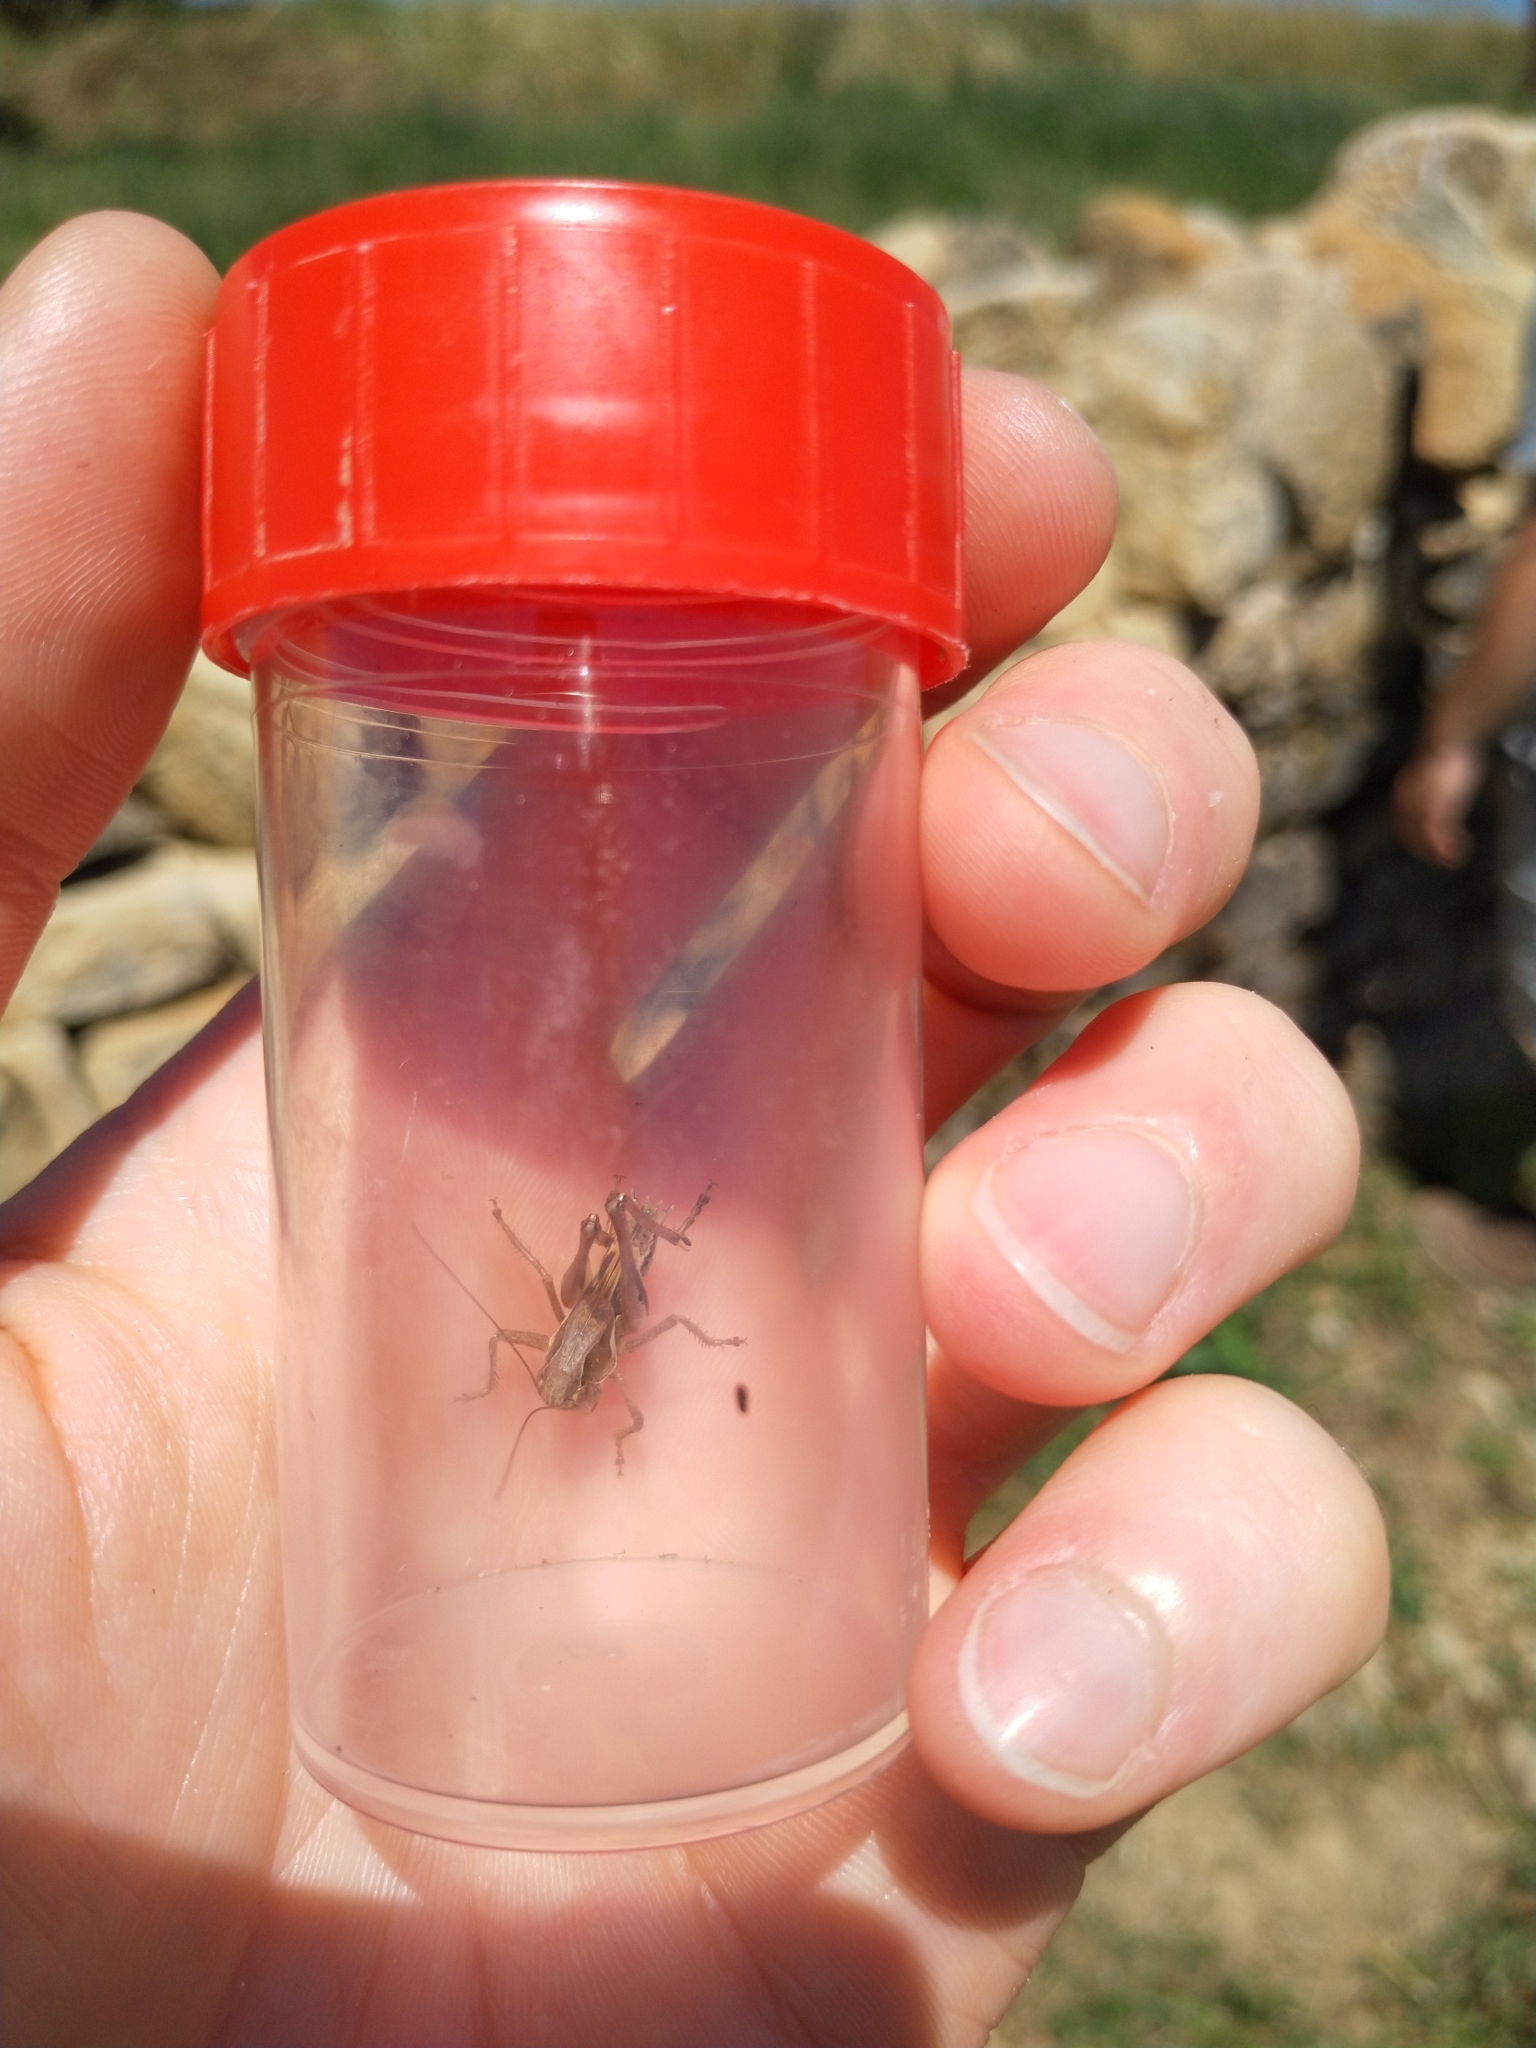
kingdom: Animalia
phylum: Arthropoda
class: Insecta
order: Orthoptera
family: Tettigoniidae
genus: Platycleis
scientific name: Platycleis albopunctata
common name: Grey bush-cricket
